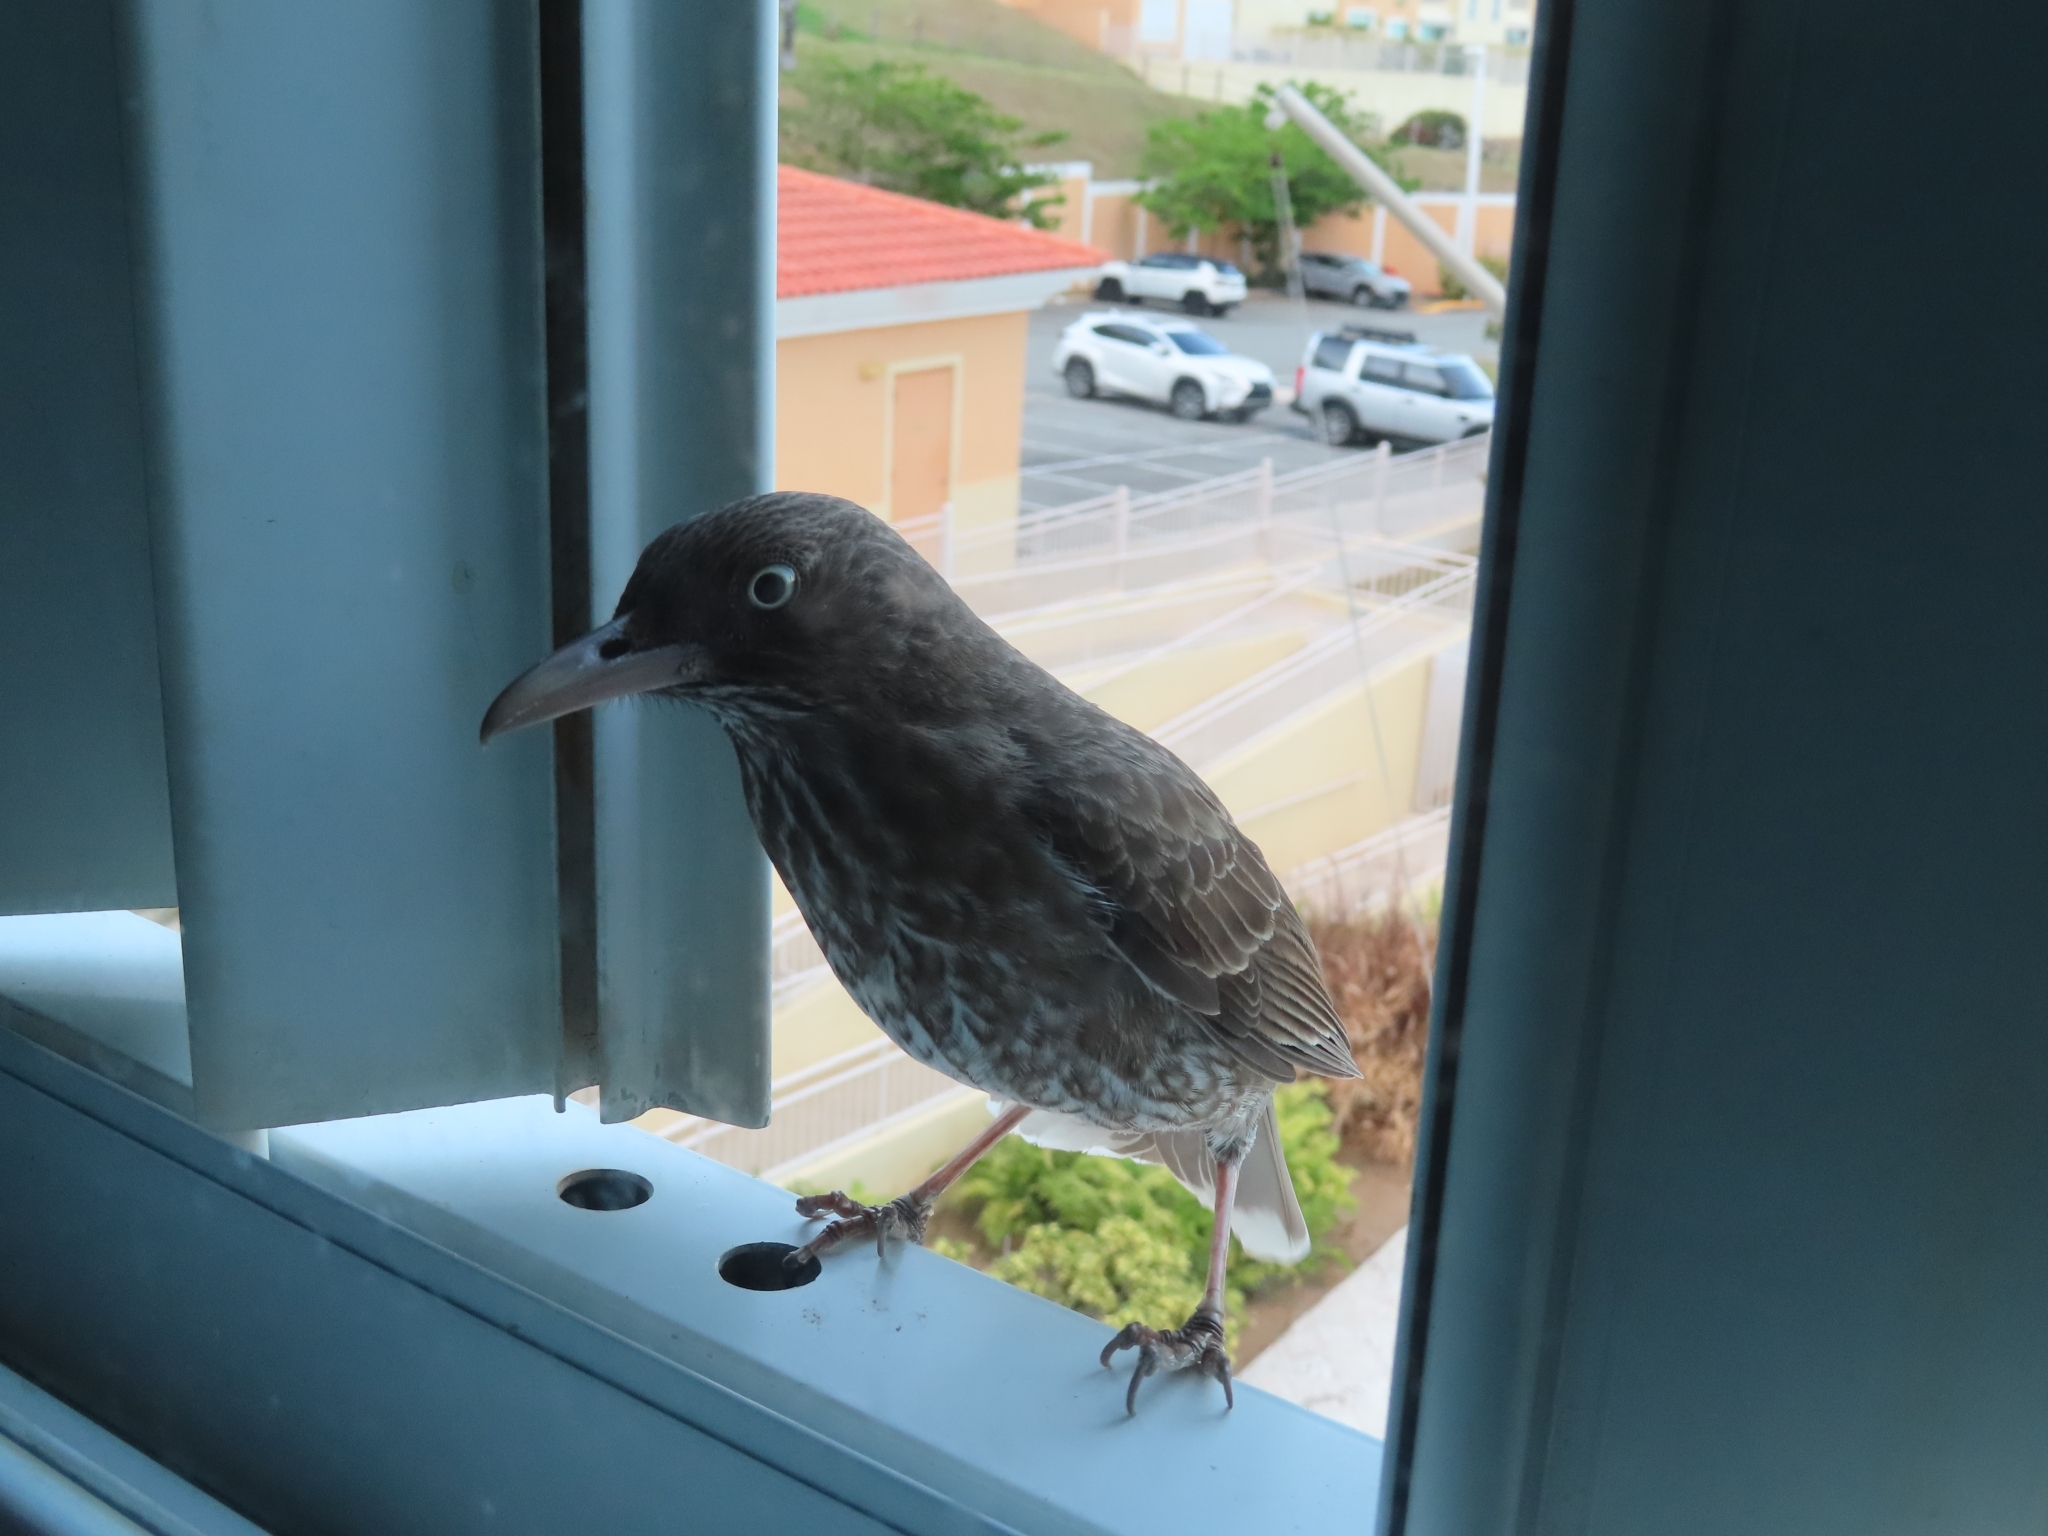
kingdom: Animalia
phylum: Chordata
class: Aves
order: Passeriformes
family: Mimidae
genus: Margarops
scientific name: Margarops fuscatus
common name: Pearly-eyed thrasher
